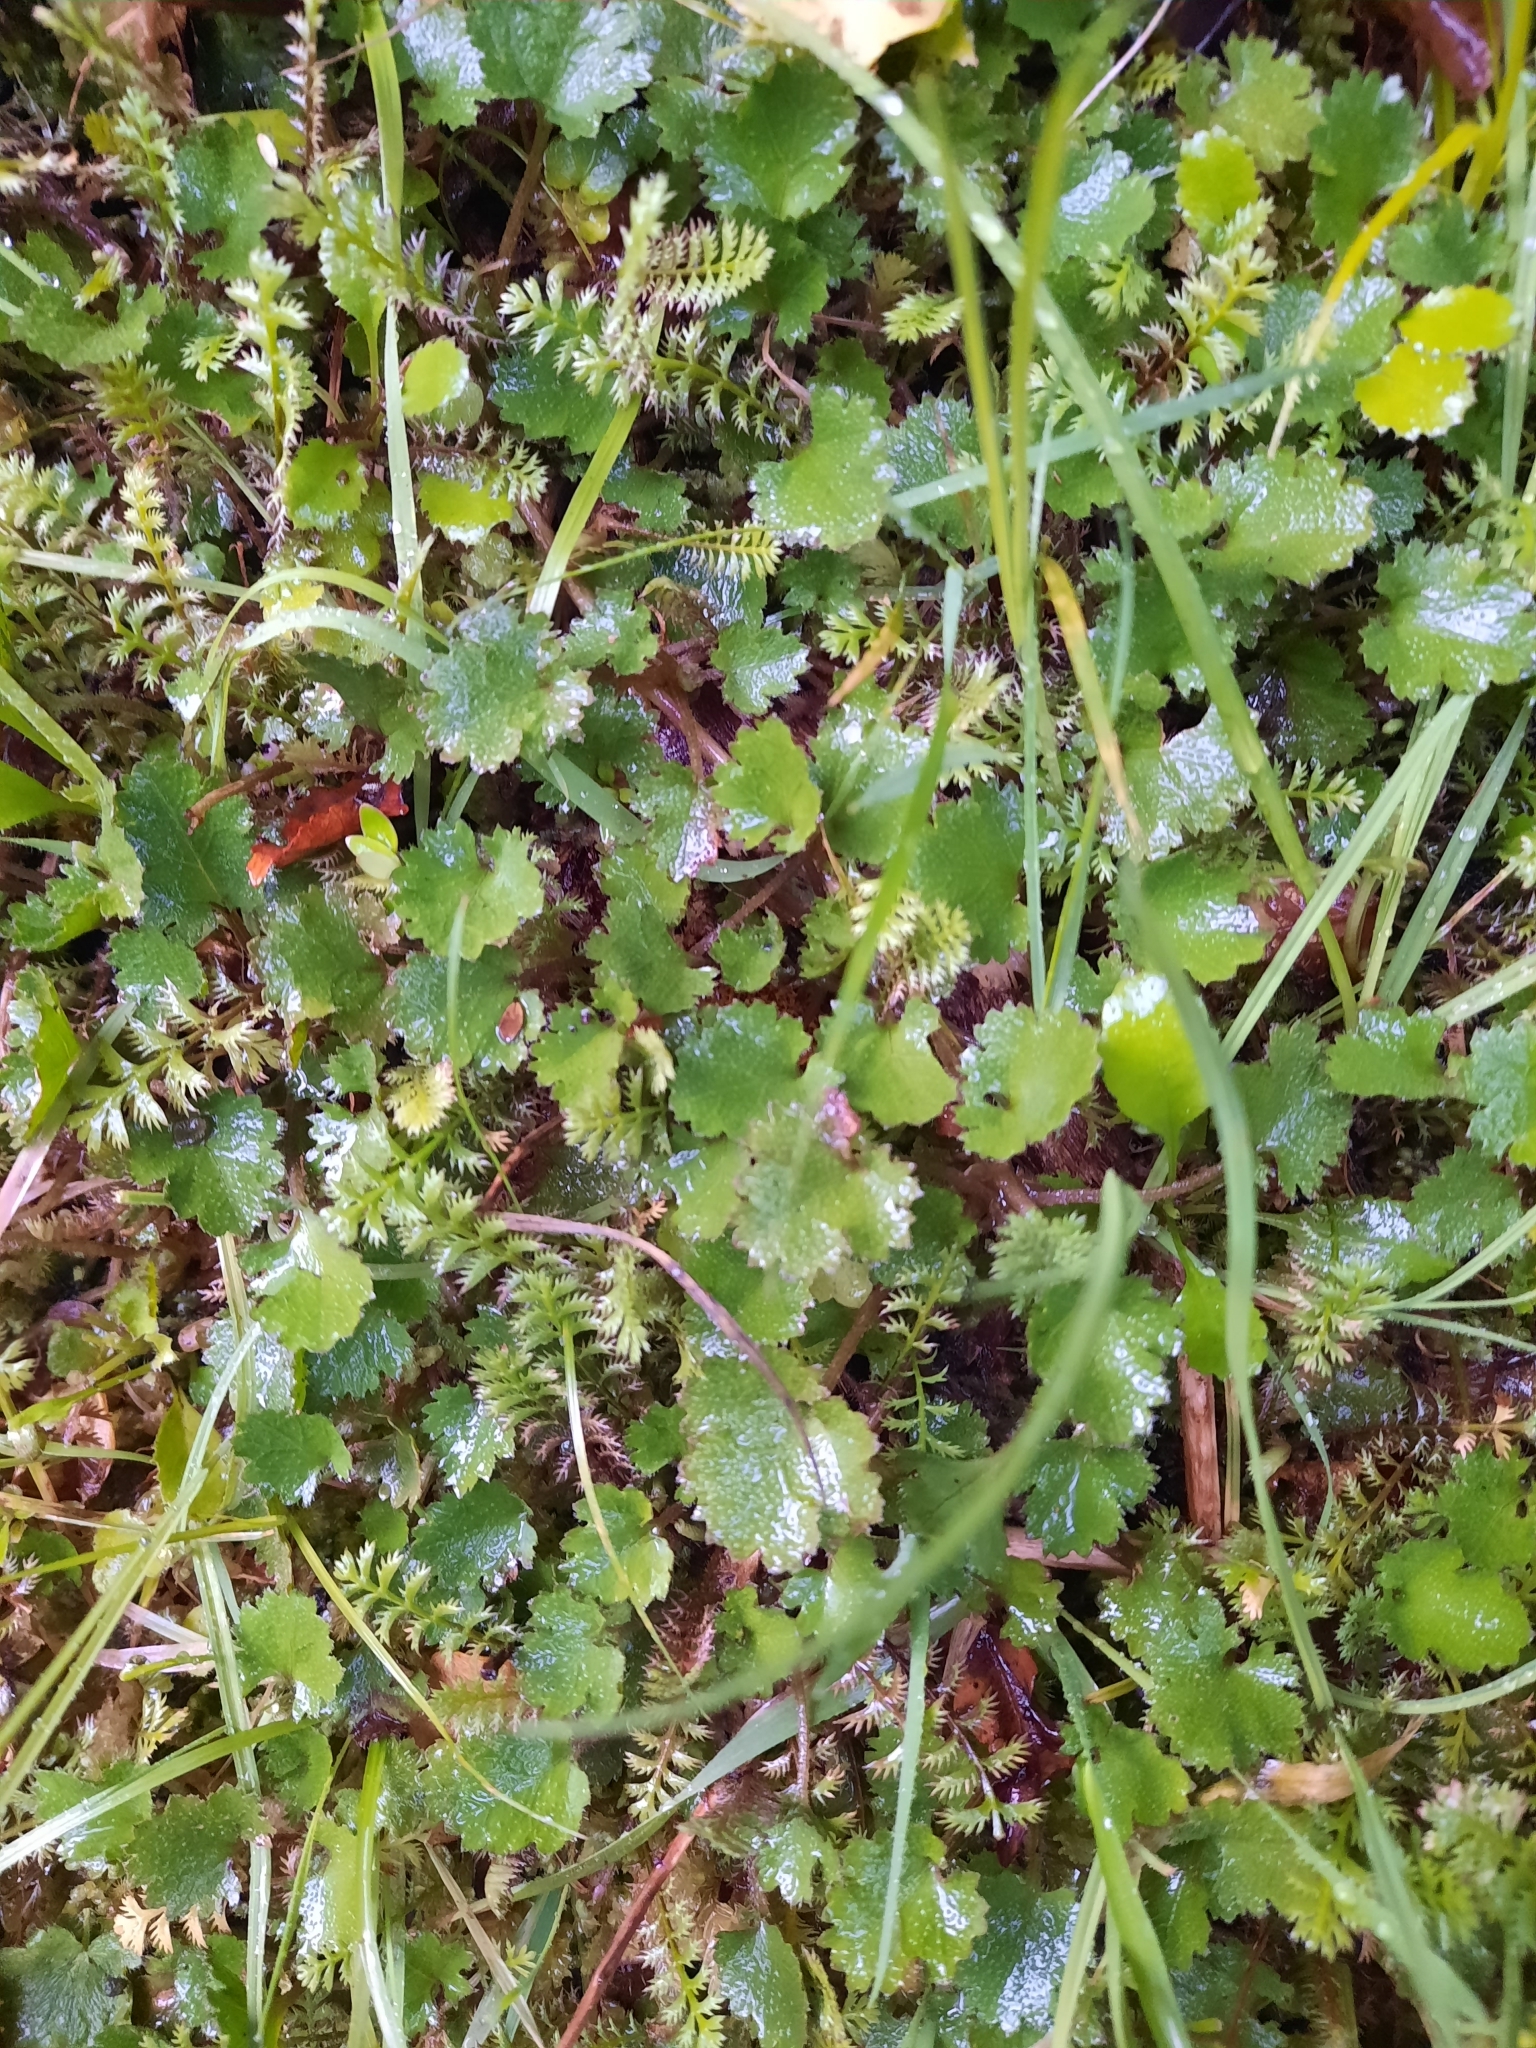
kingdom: Plantae
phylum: Tracheophyta
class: Magnoliopsida
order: Gunnerales
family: Gunneraceae
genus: Gunnera
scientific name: Gunnera monoica
